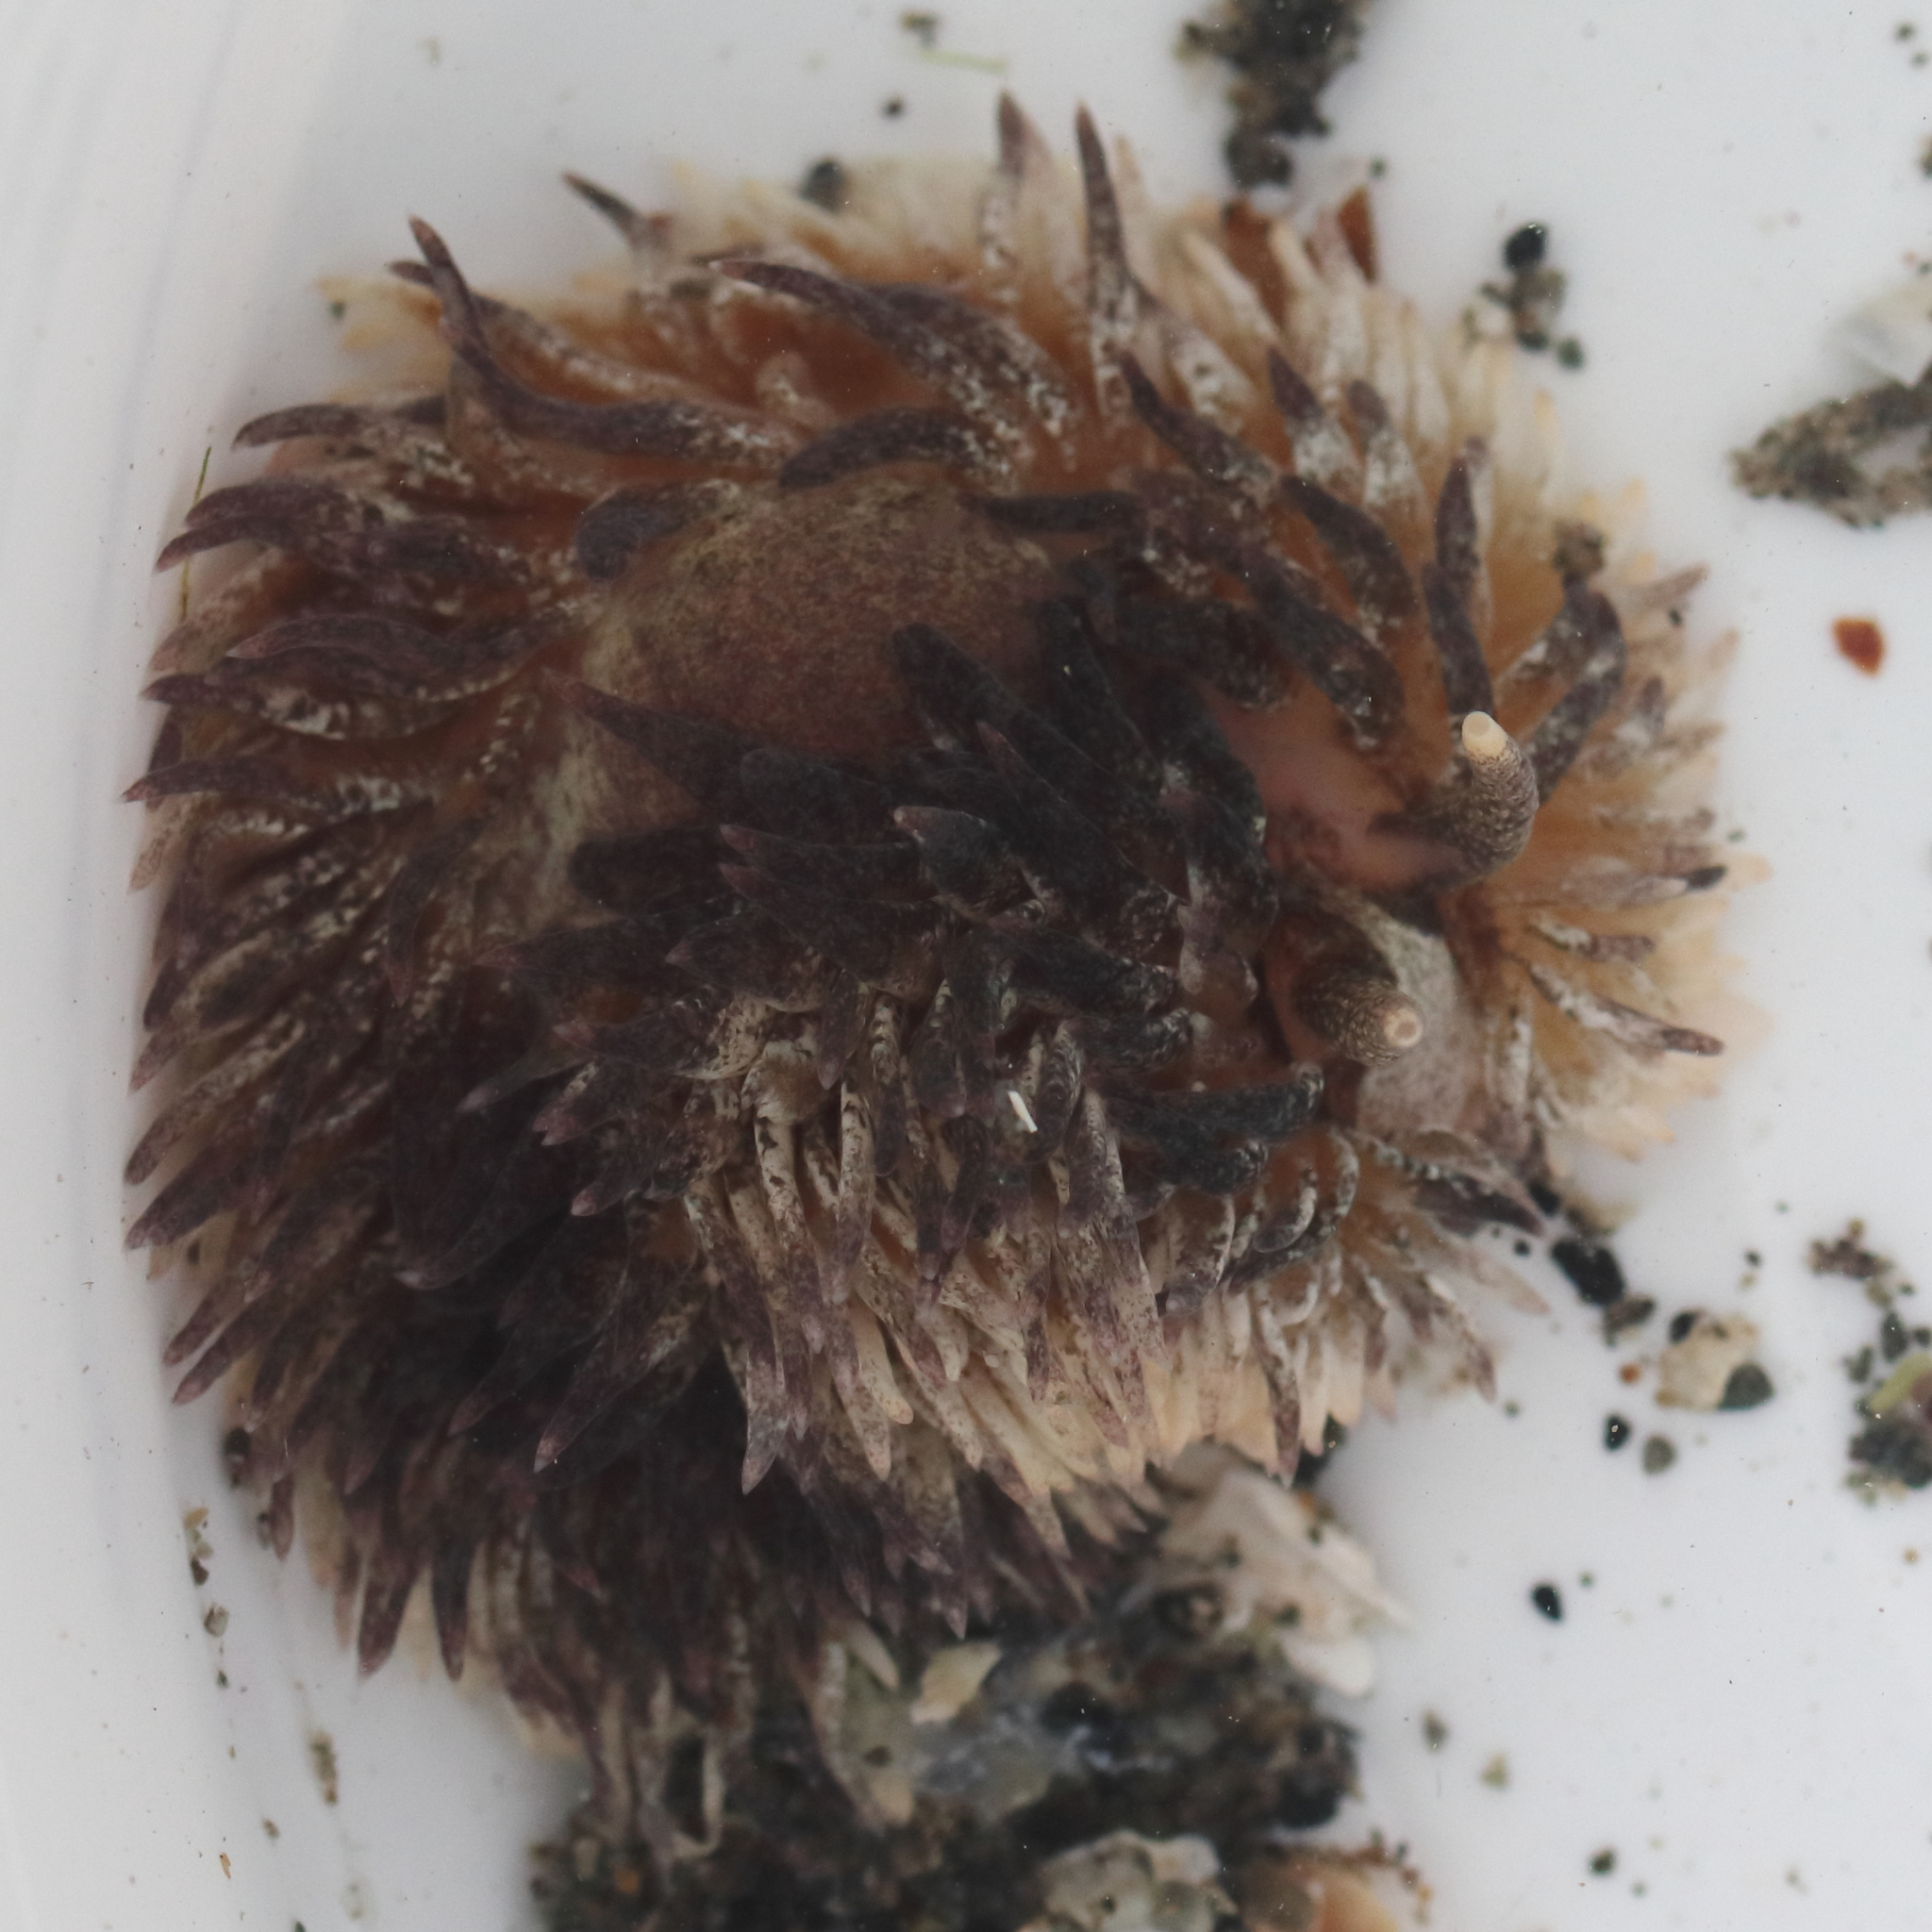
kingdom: Animalia
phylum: Mollusca
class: Gastropoda
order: Nudibranchia
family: Aeolidiidae
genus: Aeolidia
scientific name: Aeolidia loui
